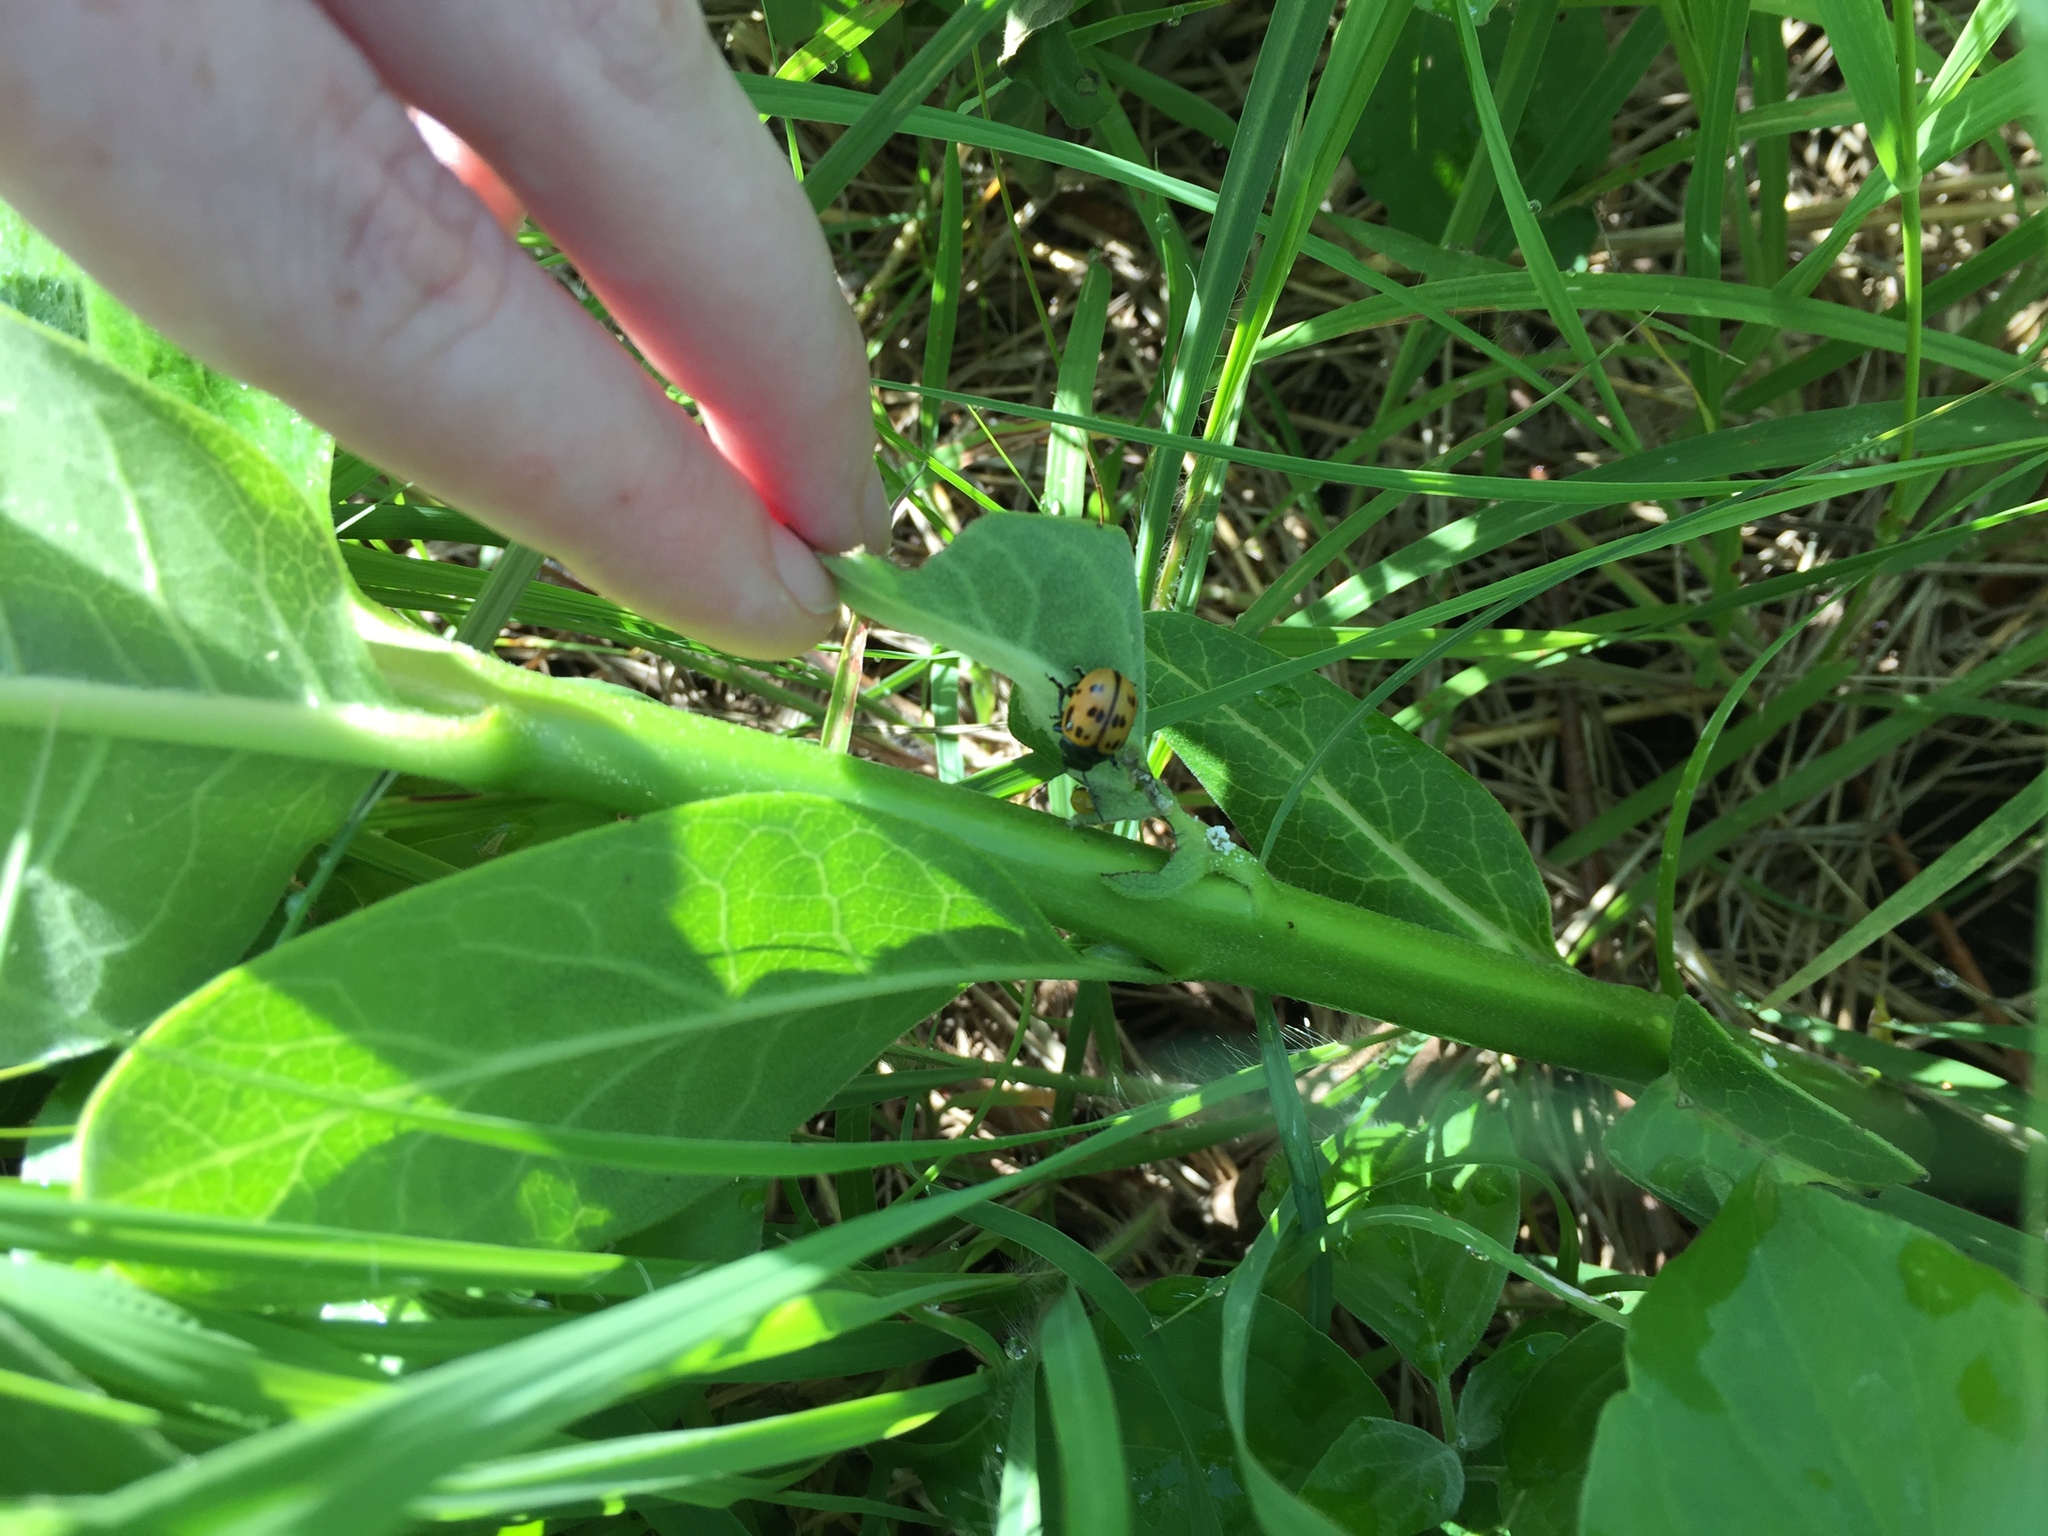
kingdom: Animalia
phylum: Arthropoda
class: Insecta
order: Coleoptera
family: Chrysomelidae
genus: Labidomera
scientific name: Labidomera clivicollis
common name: Swamp milkweed leaf beetle
